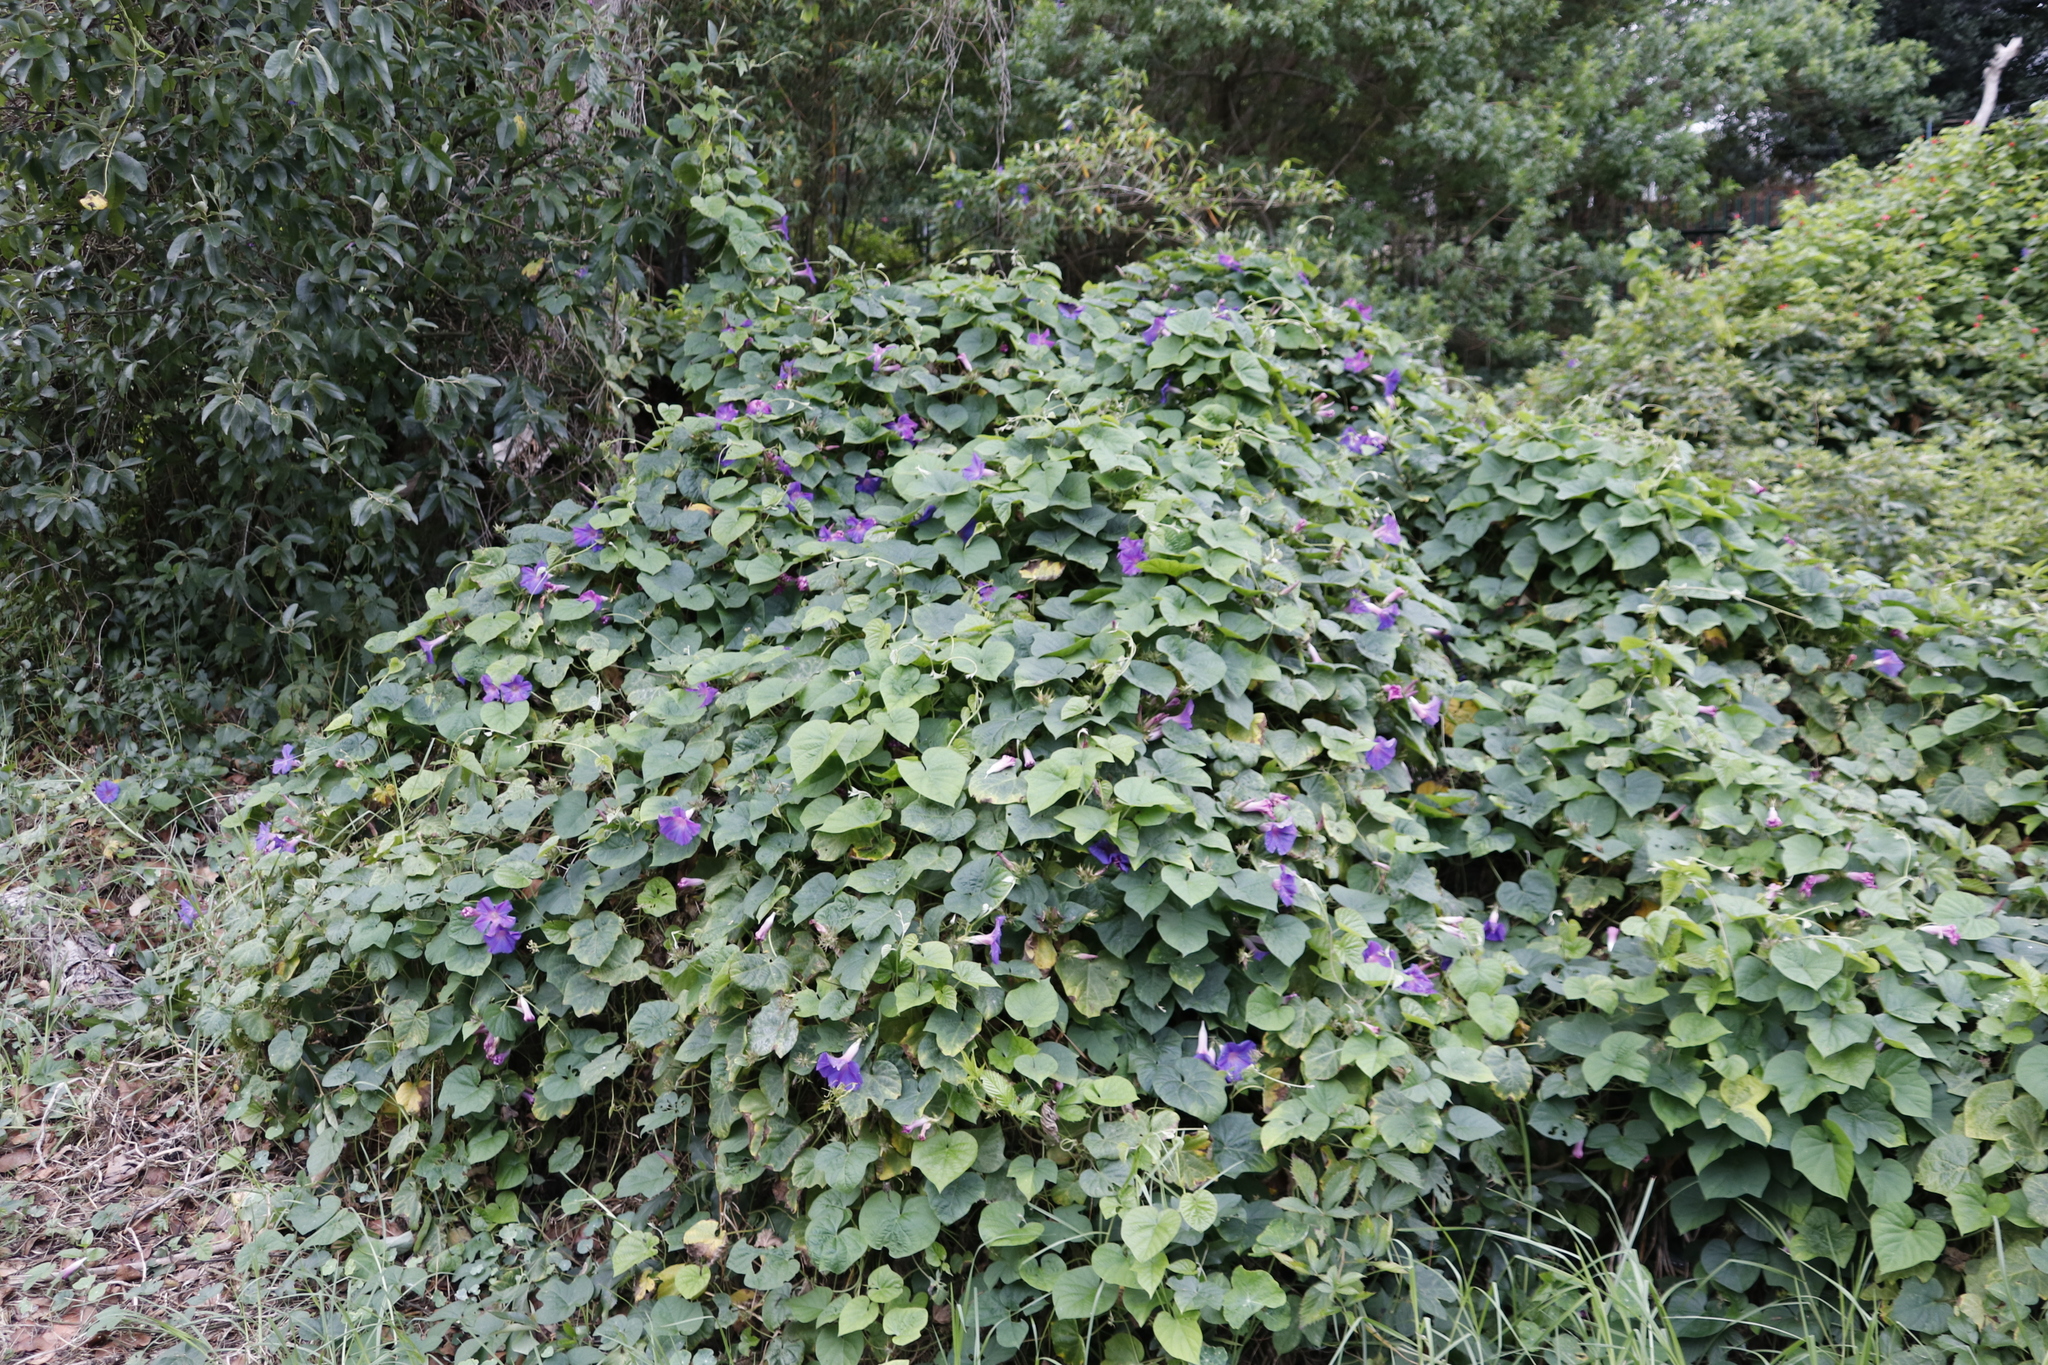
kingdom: Plantae
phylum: Tracheophyta
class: Magnoliopsida
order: Solanales
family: Convolvulaceae
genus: Ipomoea
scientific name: Ipomoea indica
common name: Blue dawnflower
